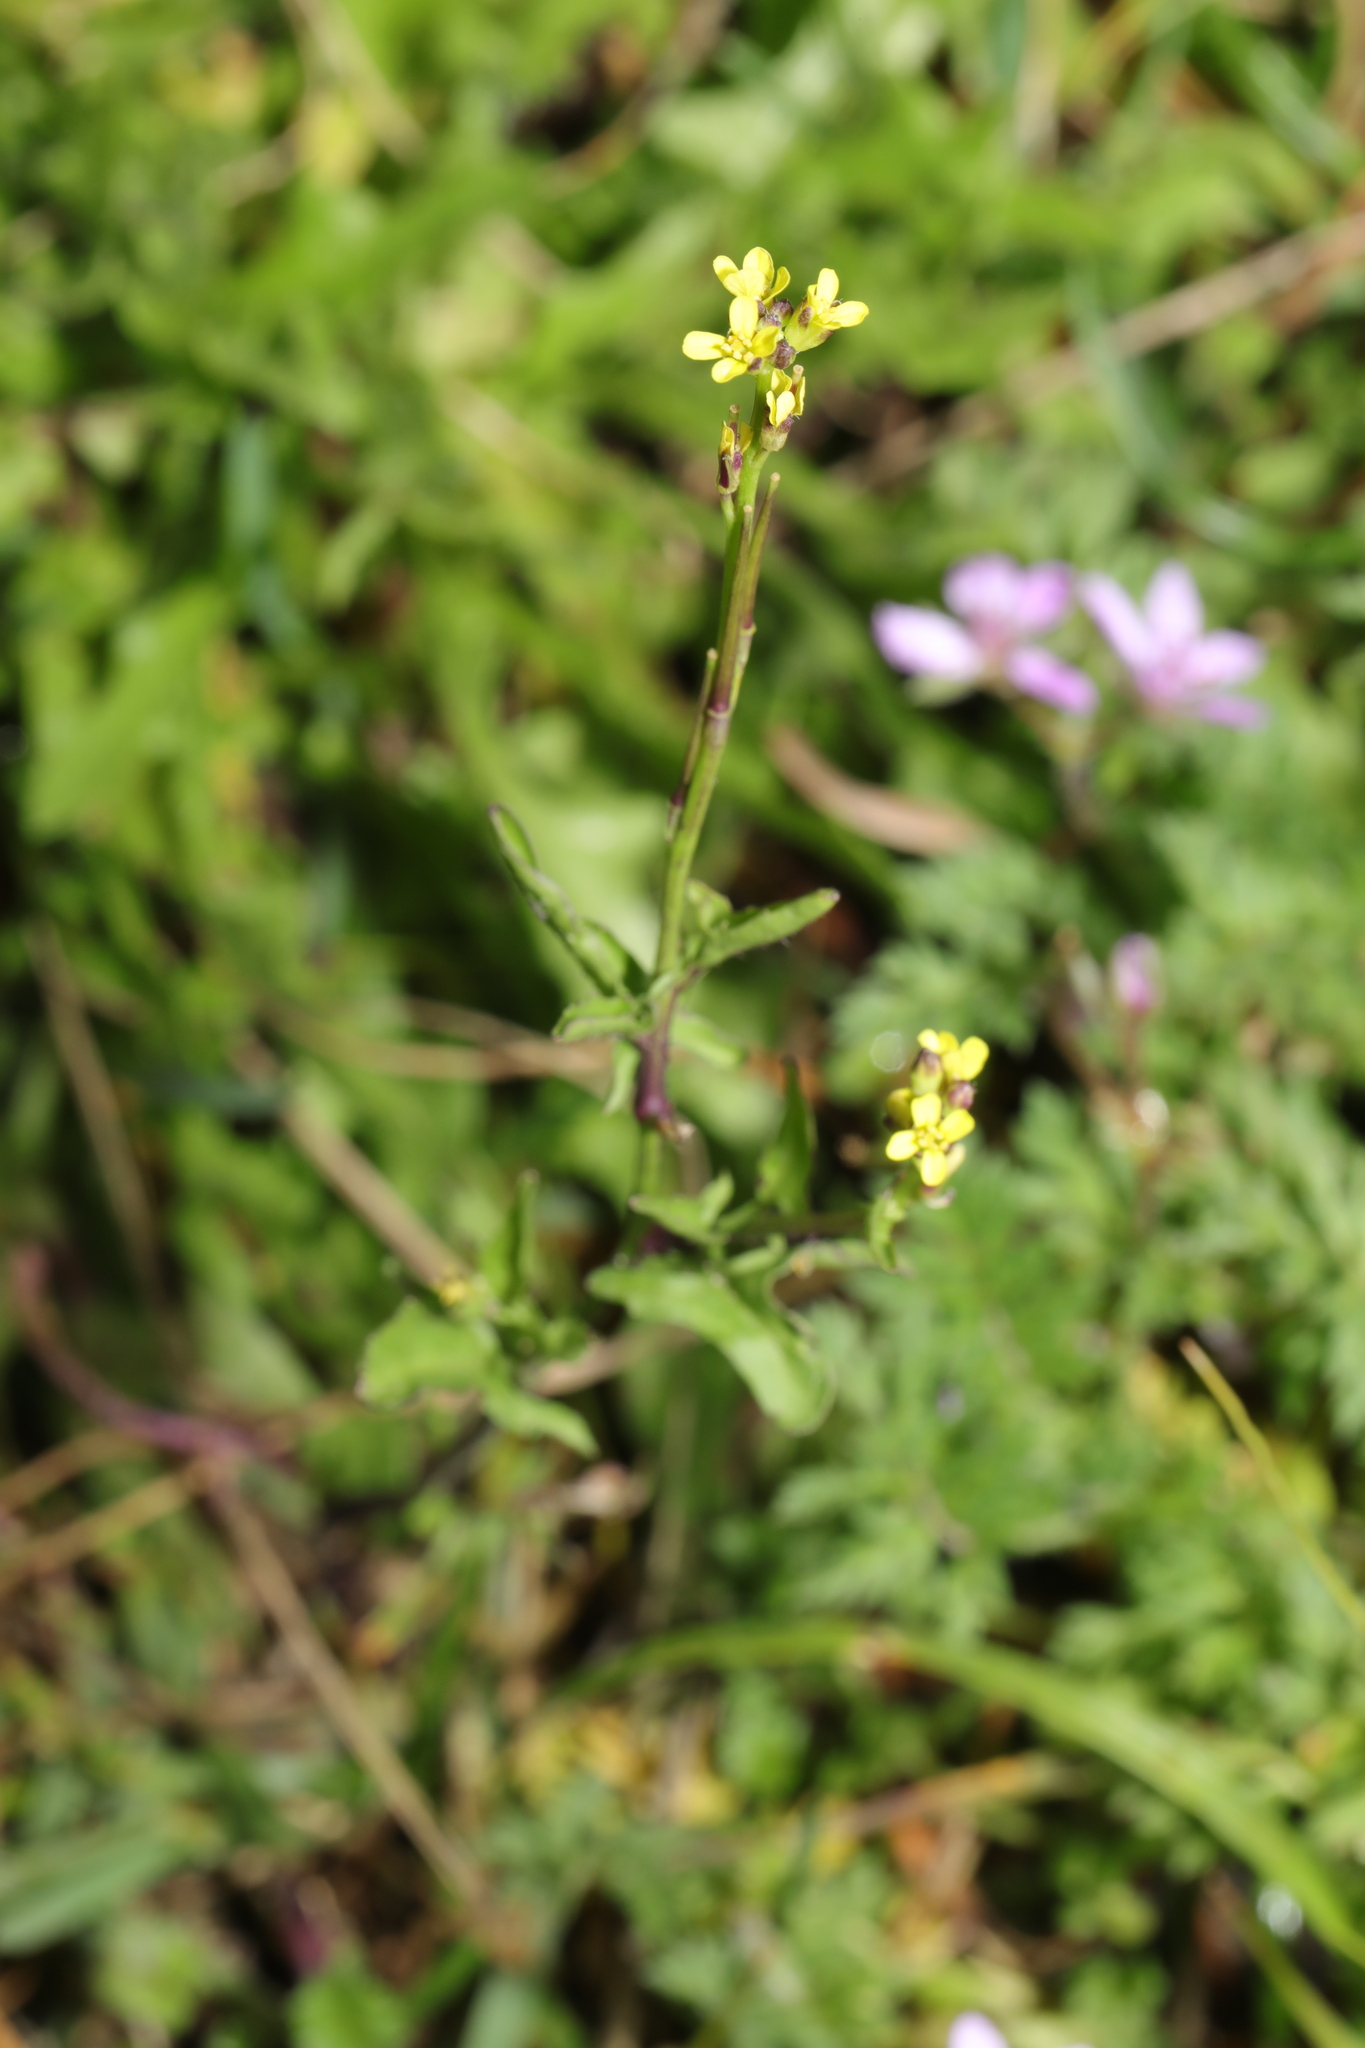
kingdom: Plantae
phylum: Tracheophyta
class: Magnoliopsida
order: Brassicales
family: Brassicaceae
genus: Sisymbrium
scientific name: Sisymbrium officinale
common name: Hedge mustard
